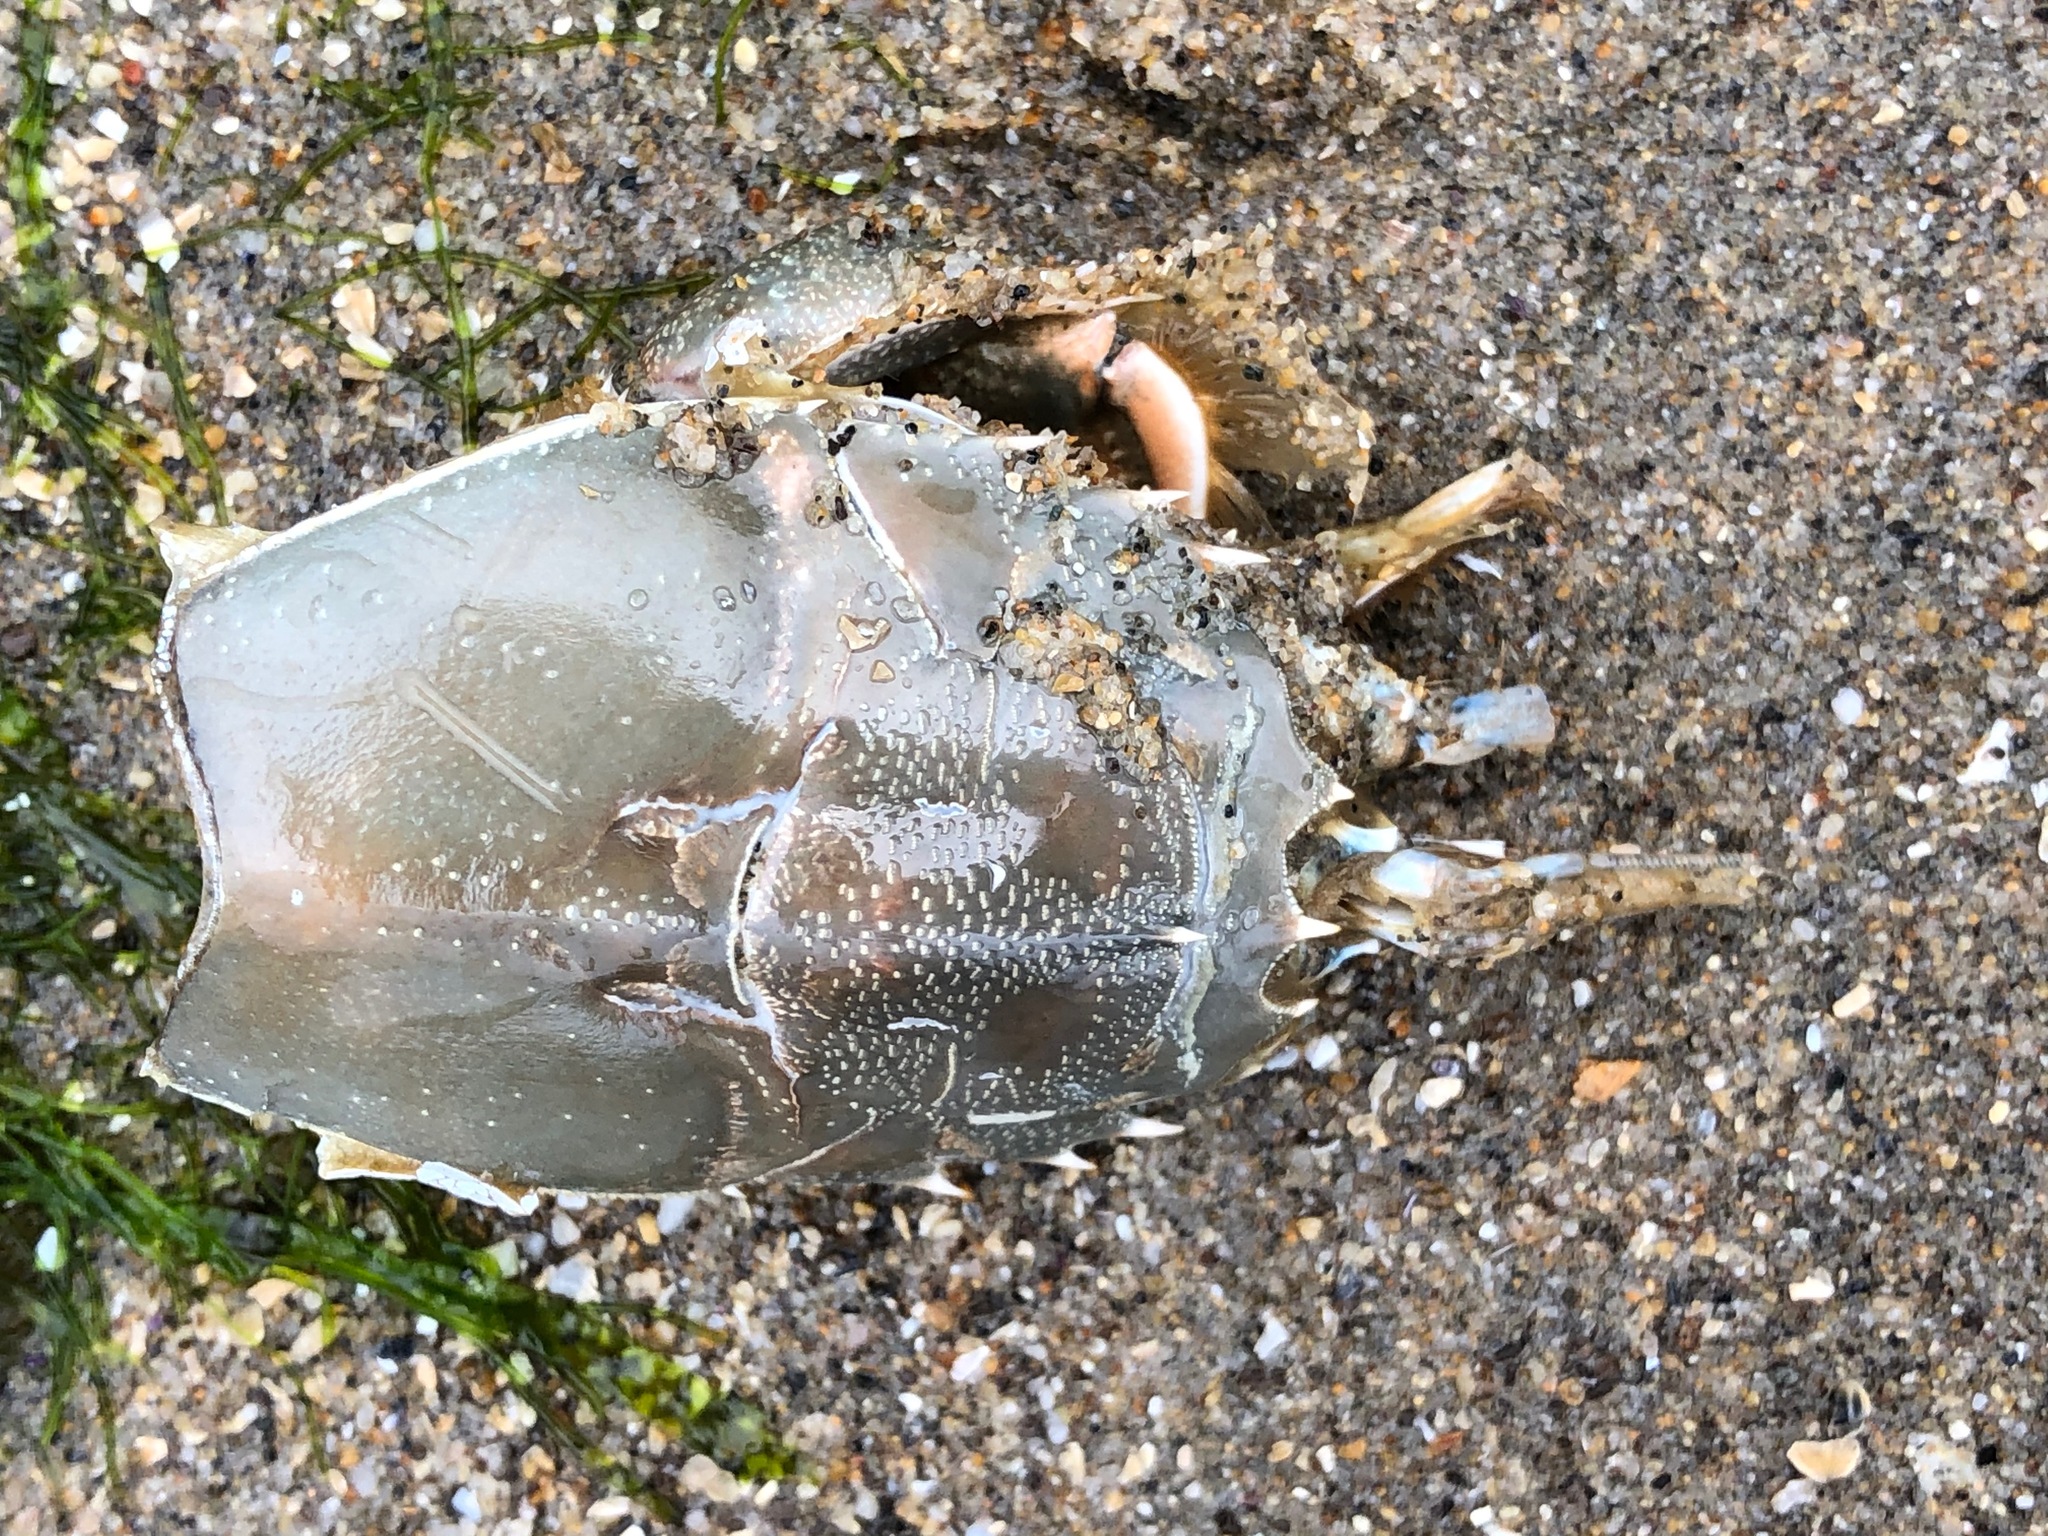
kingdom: Animalia
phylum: Arthropoda
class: Malacostraca
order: Decapoda
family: Blepharipodidae
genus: Blepharipoda
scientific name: Blepharipoda occidentalis
